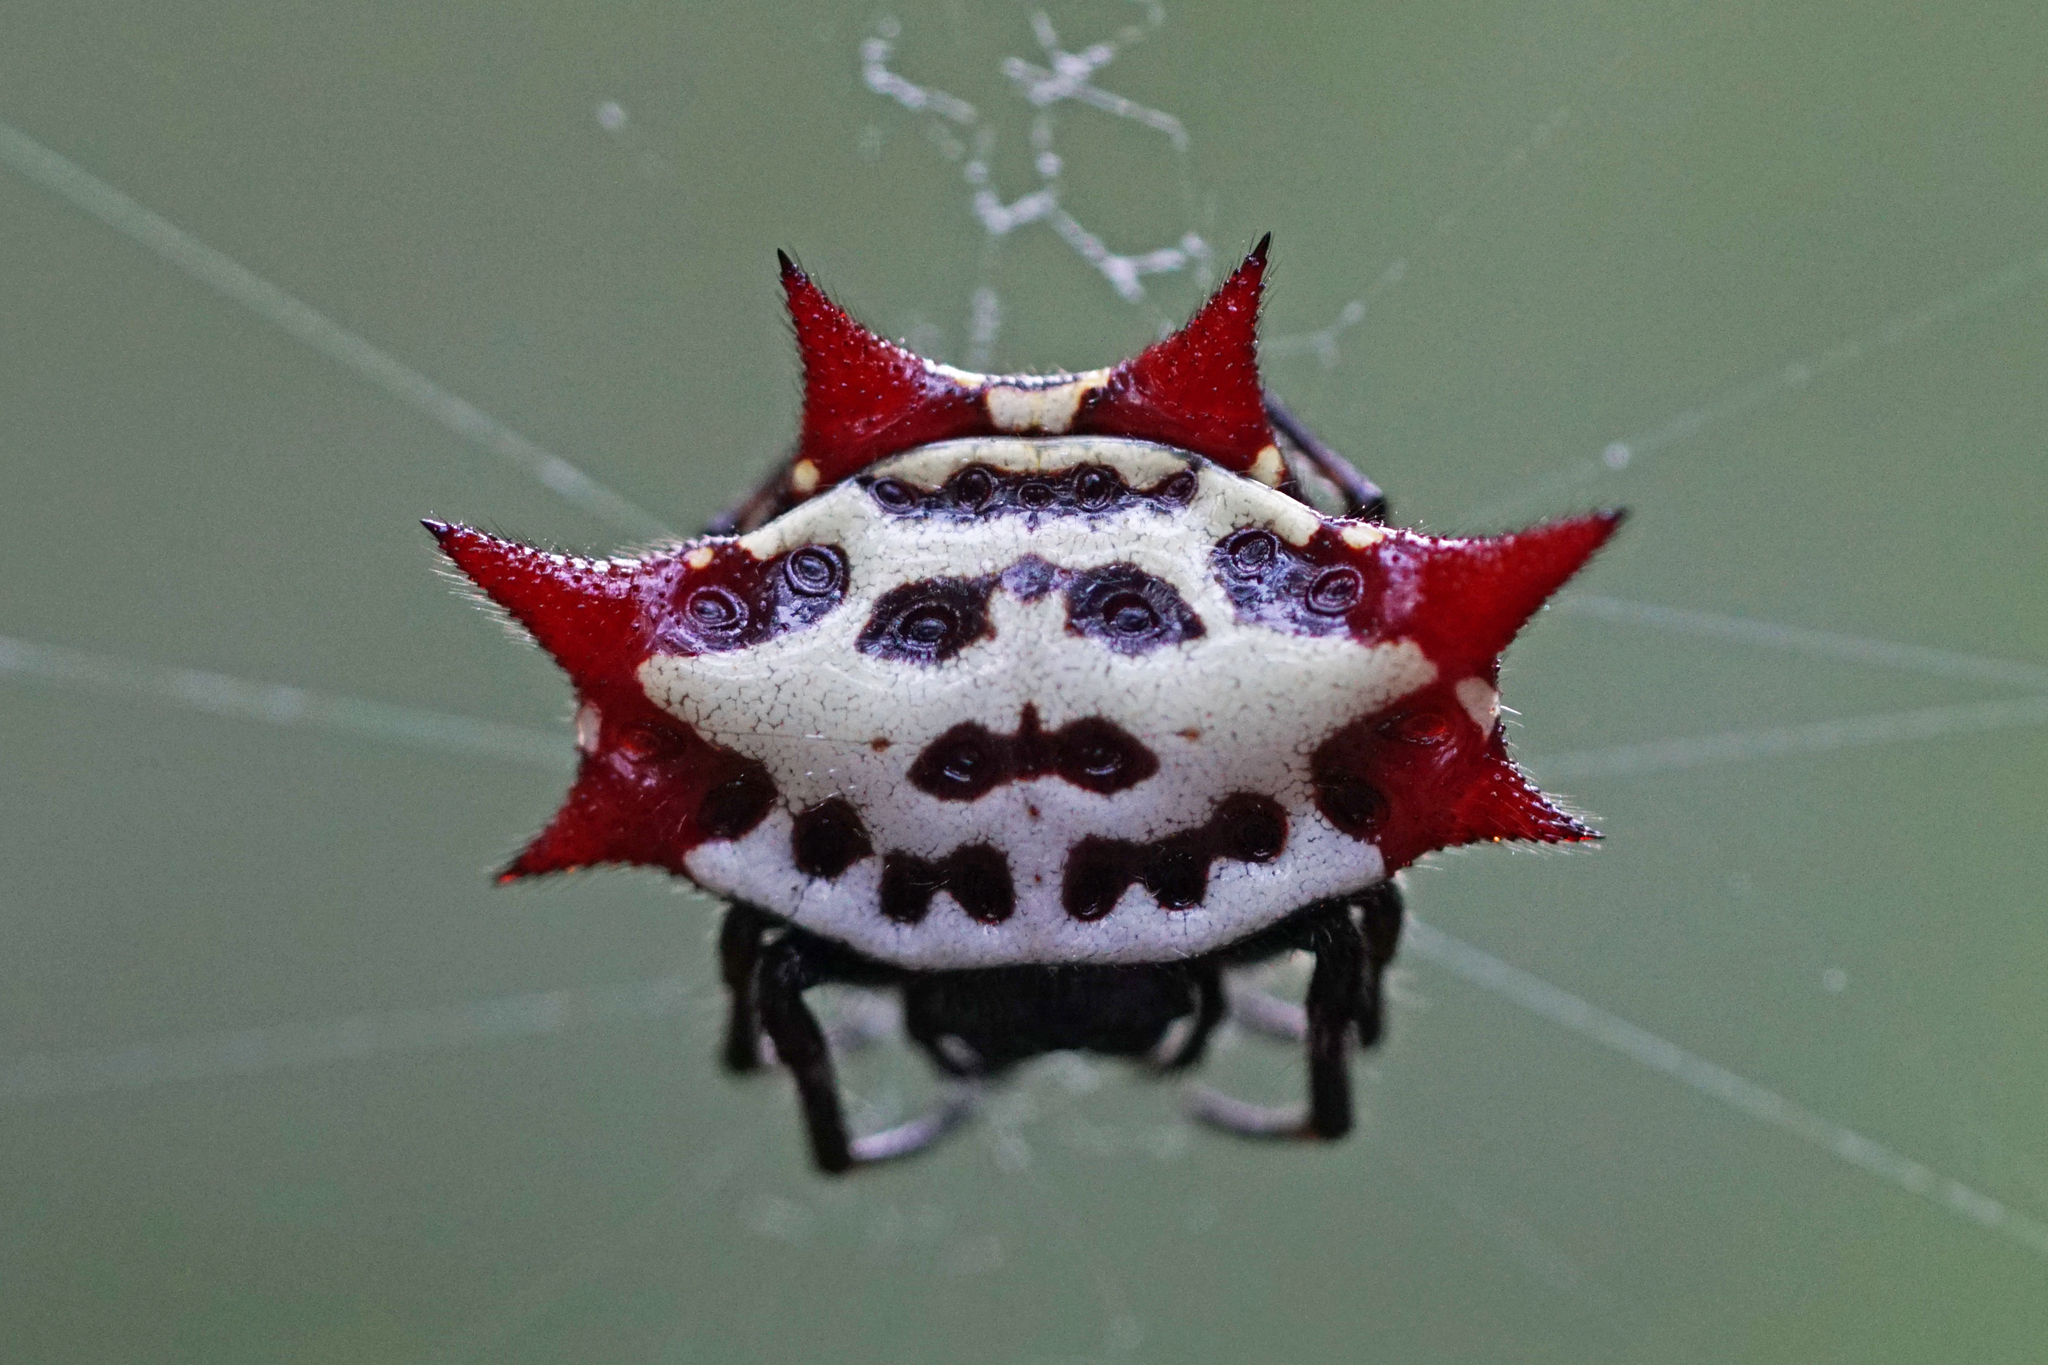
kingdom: Animalia
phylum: Arthropoda
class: Arachnida
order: Araneae
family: Araneidae
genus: Gasteracantha
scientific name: Gasteracantha cancriformis
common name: Orb weavers
